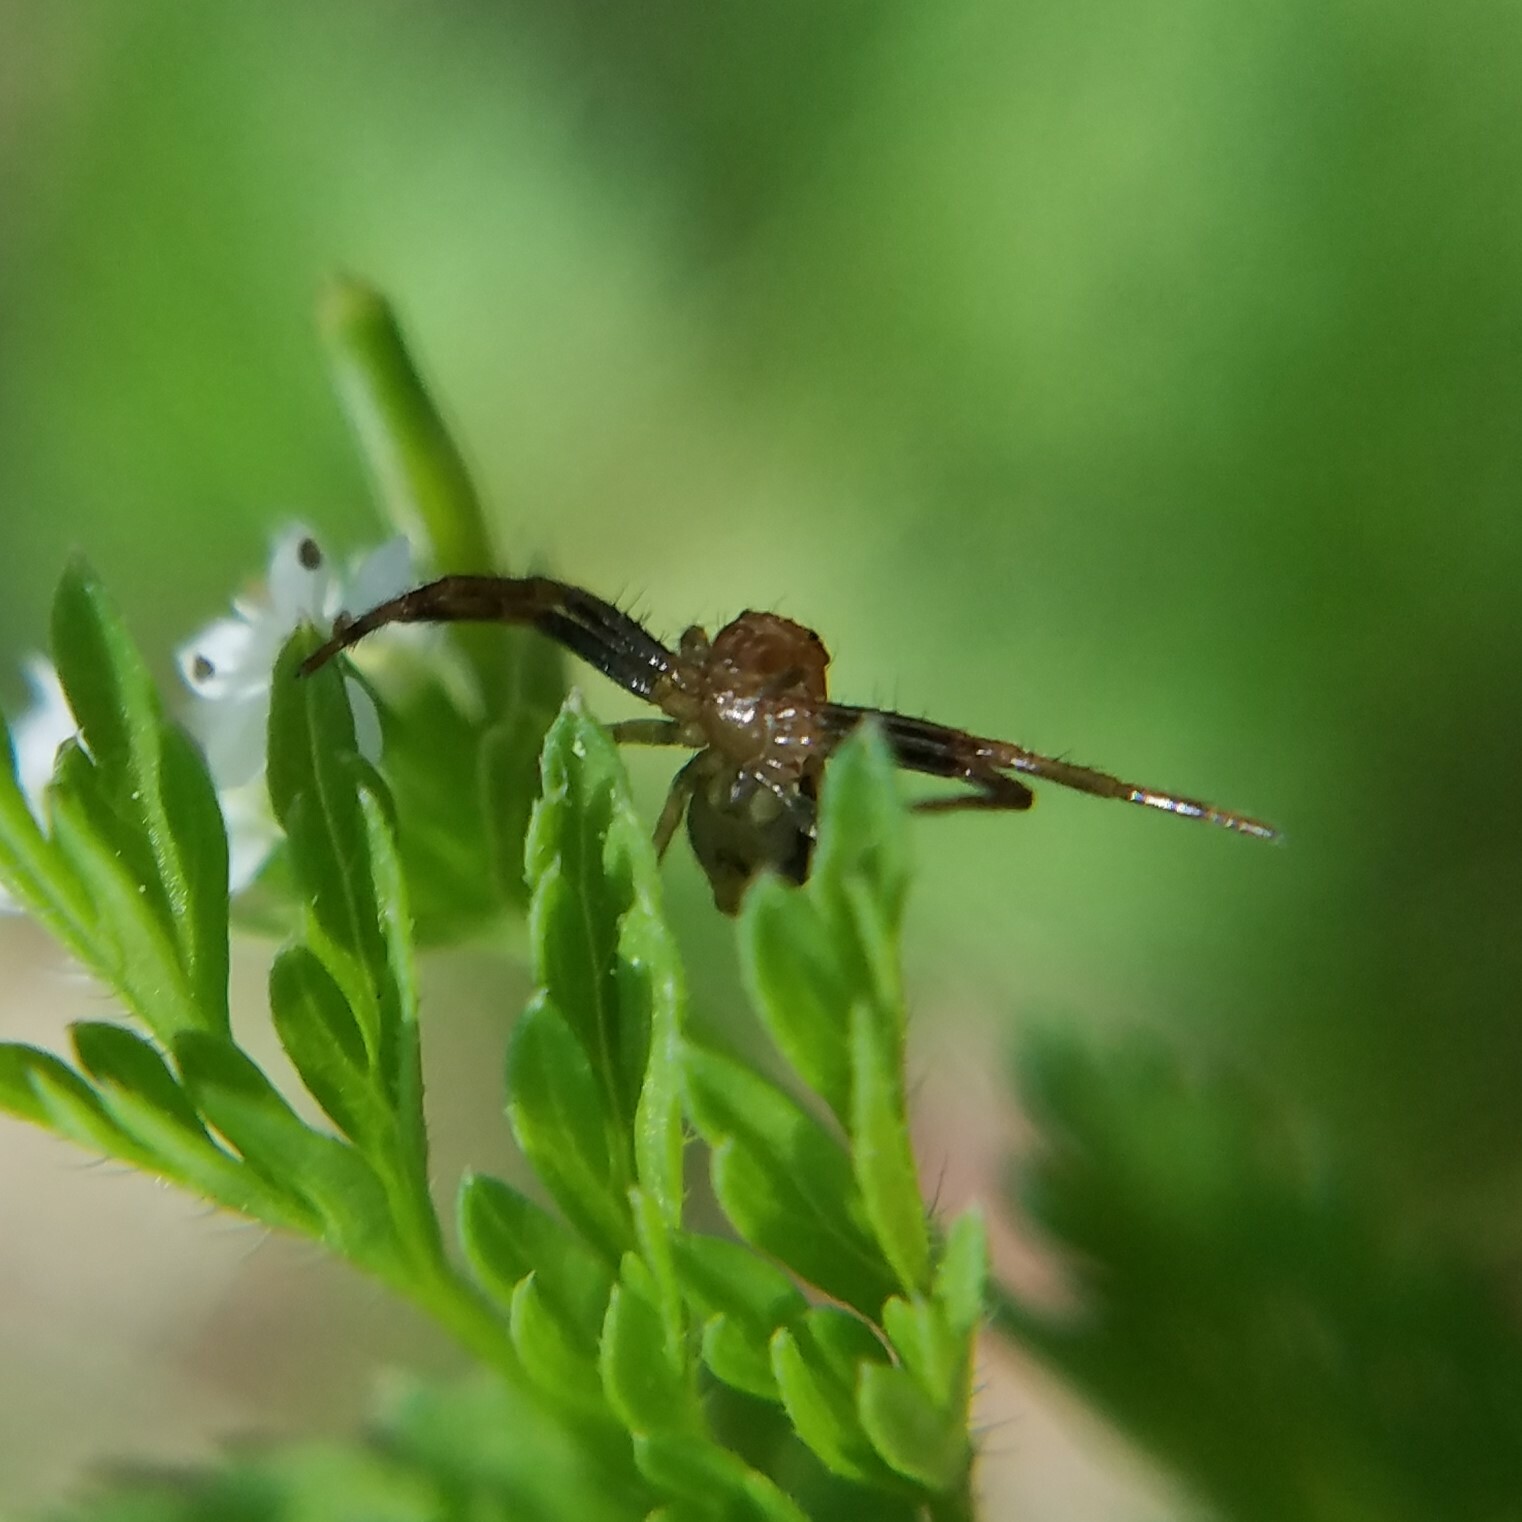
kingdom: Animalia
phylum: Arthropoda
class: Arachnida
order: Araneae
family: Thomisidae
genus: Synema
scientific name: Synema parvulum
